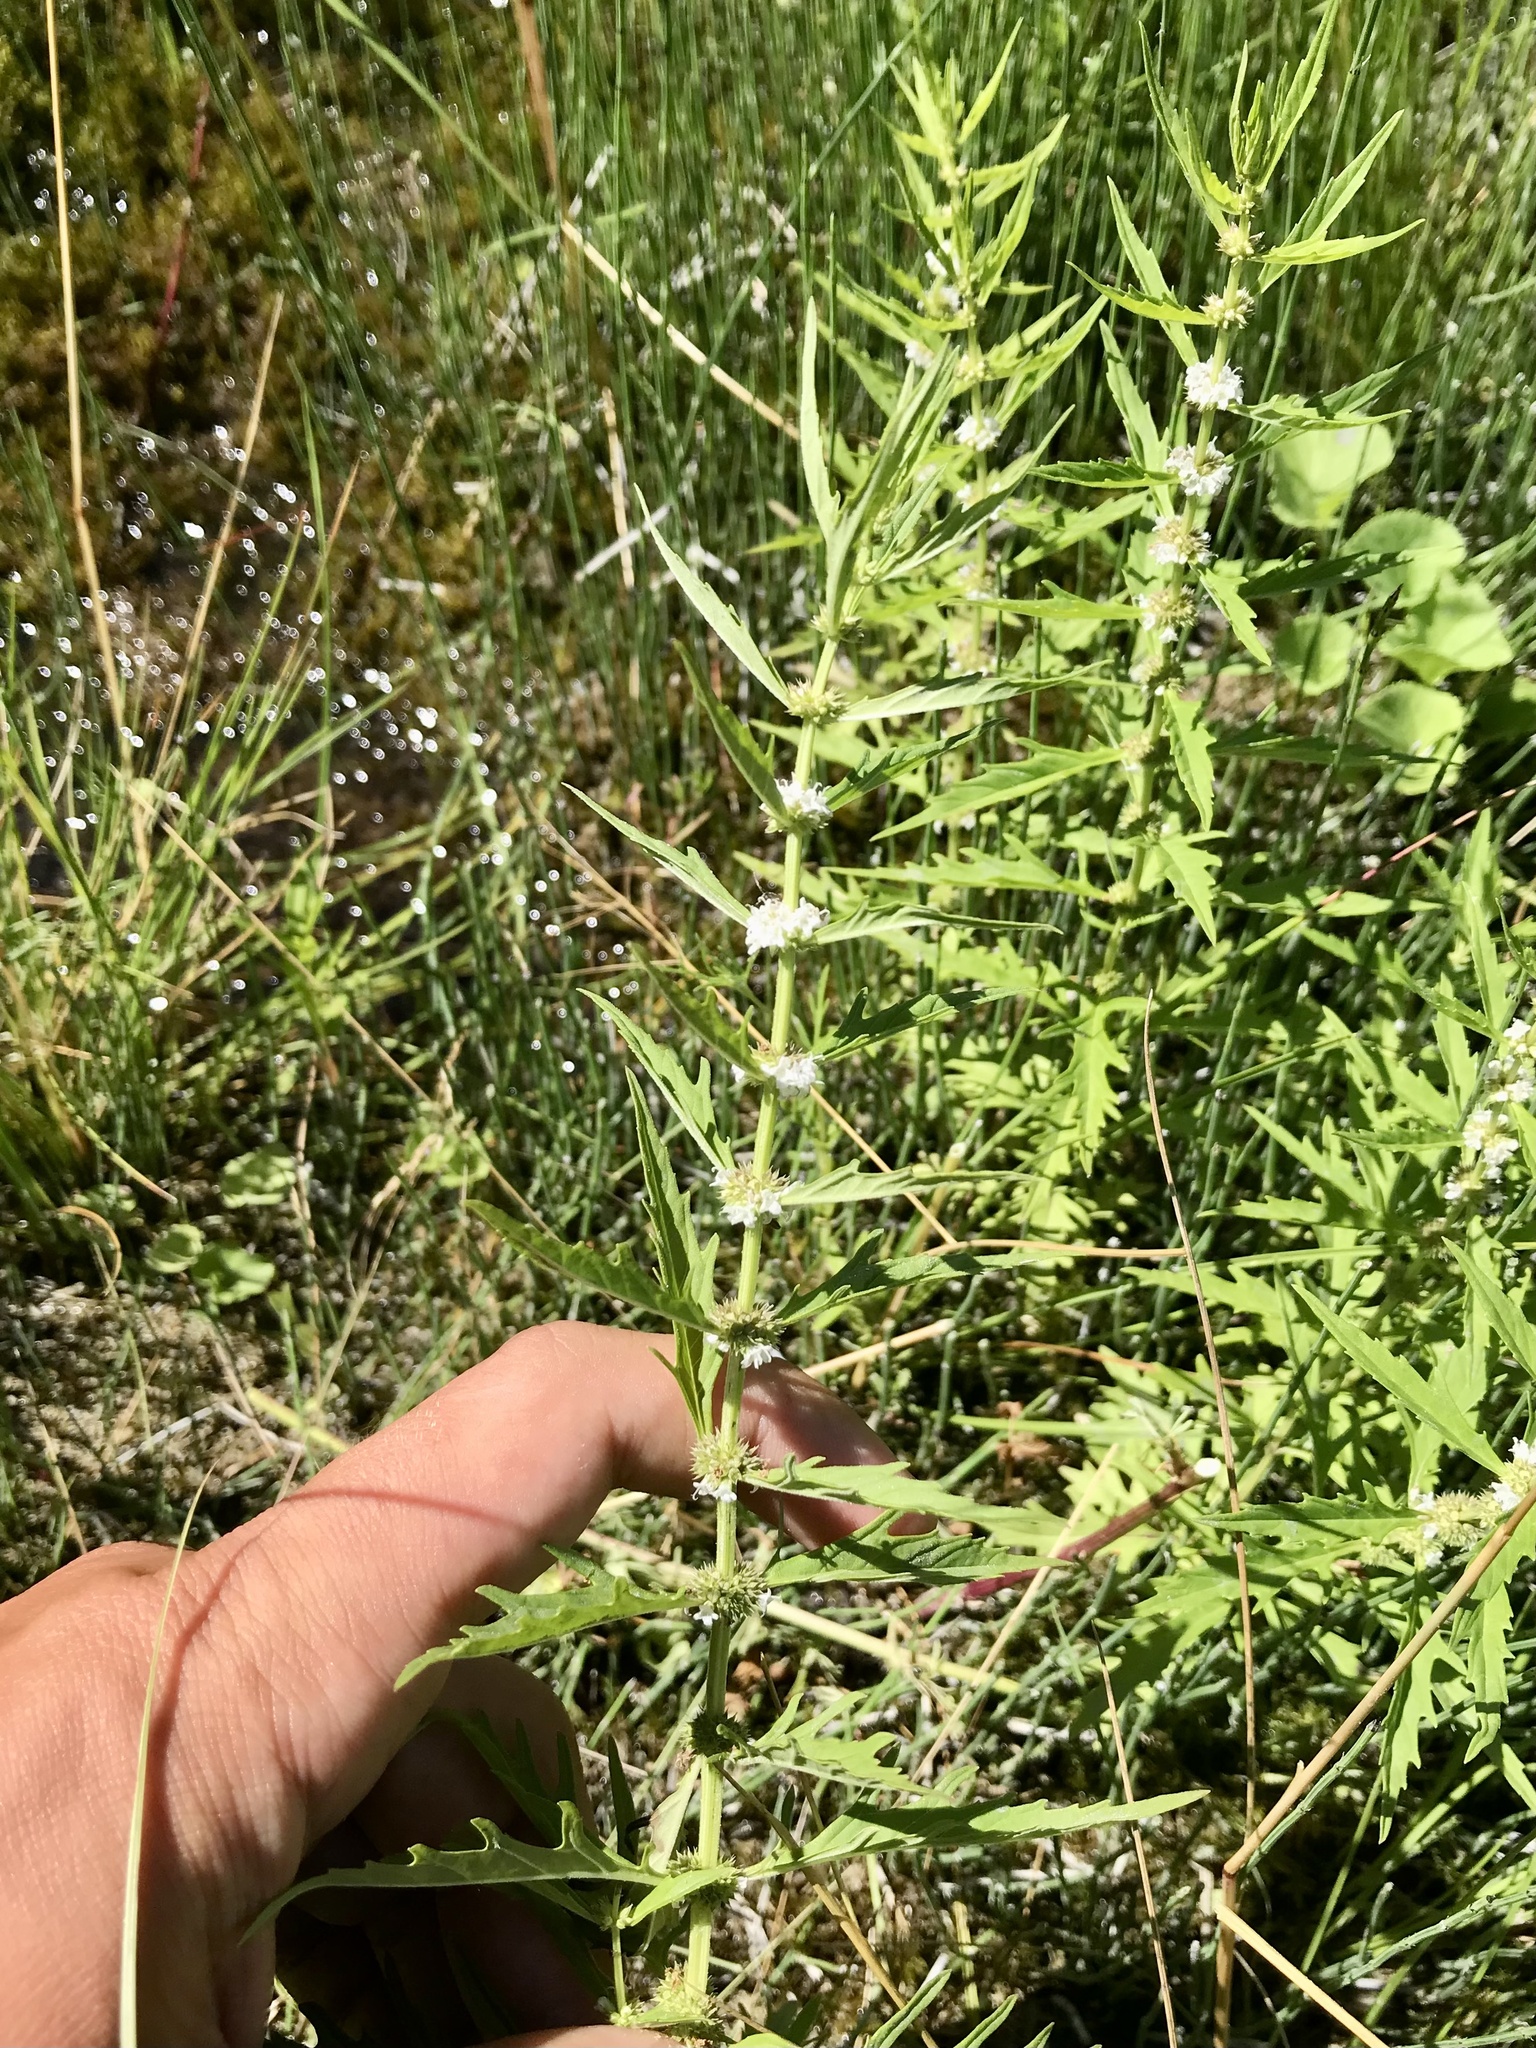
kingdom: Plantae
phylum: Tracheophyta
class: Magnoliopsida
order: Lamiales
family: Lamiaceae
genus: Lycopus
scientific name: Lycopus americanus
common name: American bugleweed
